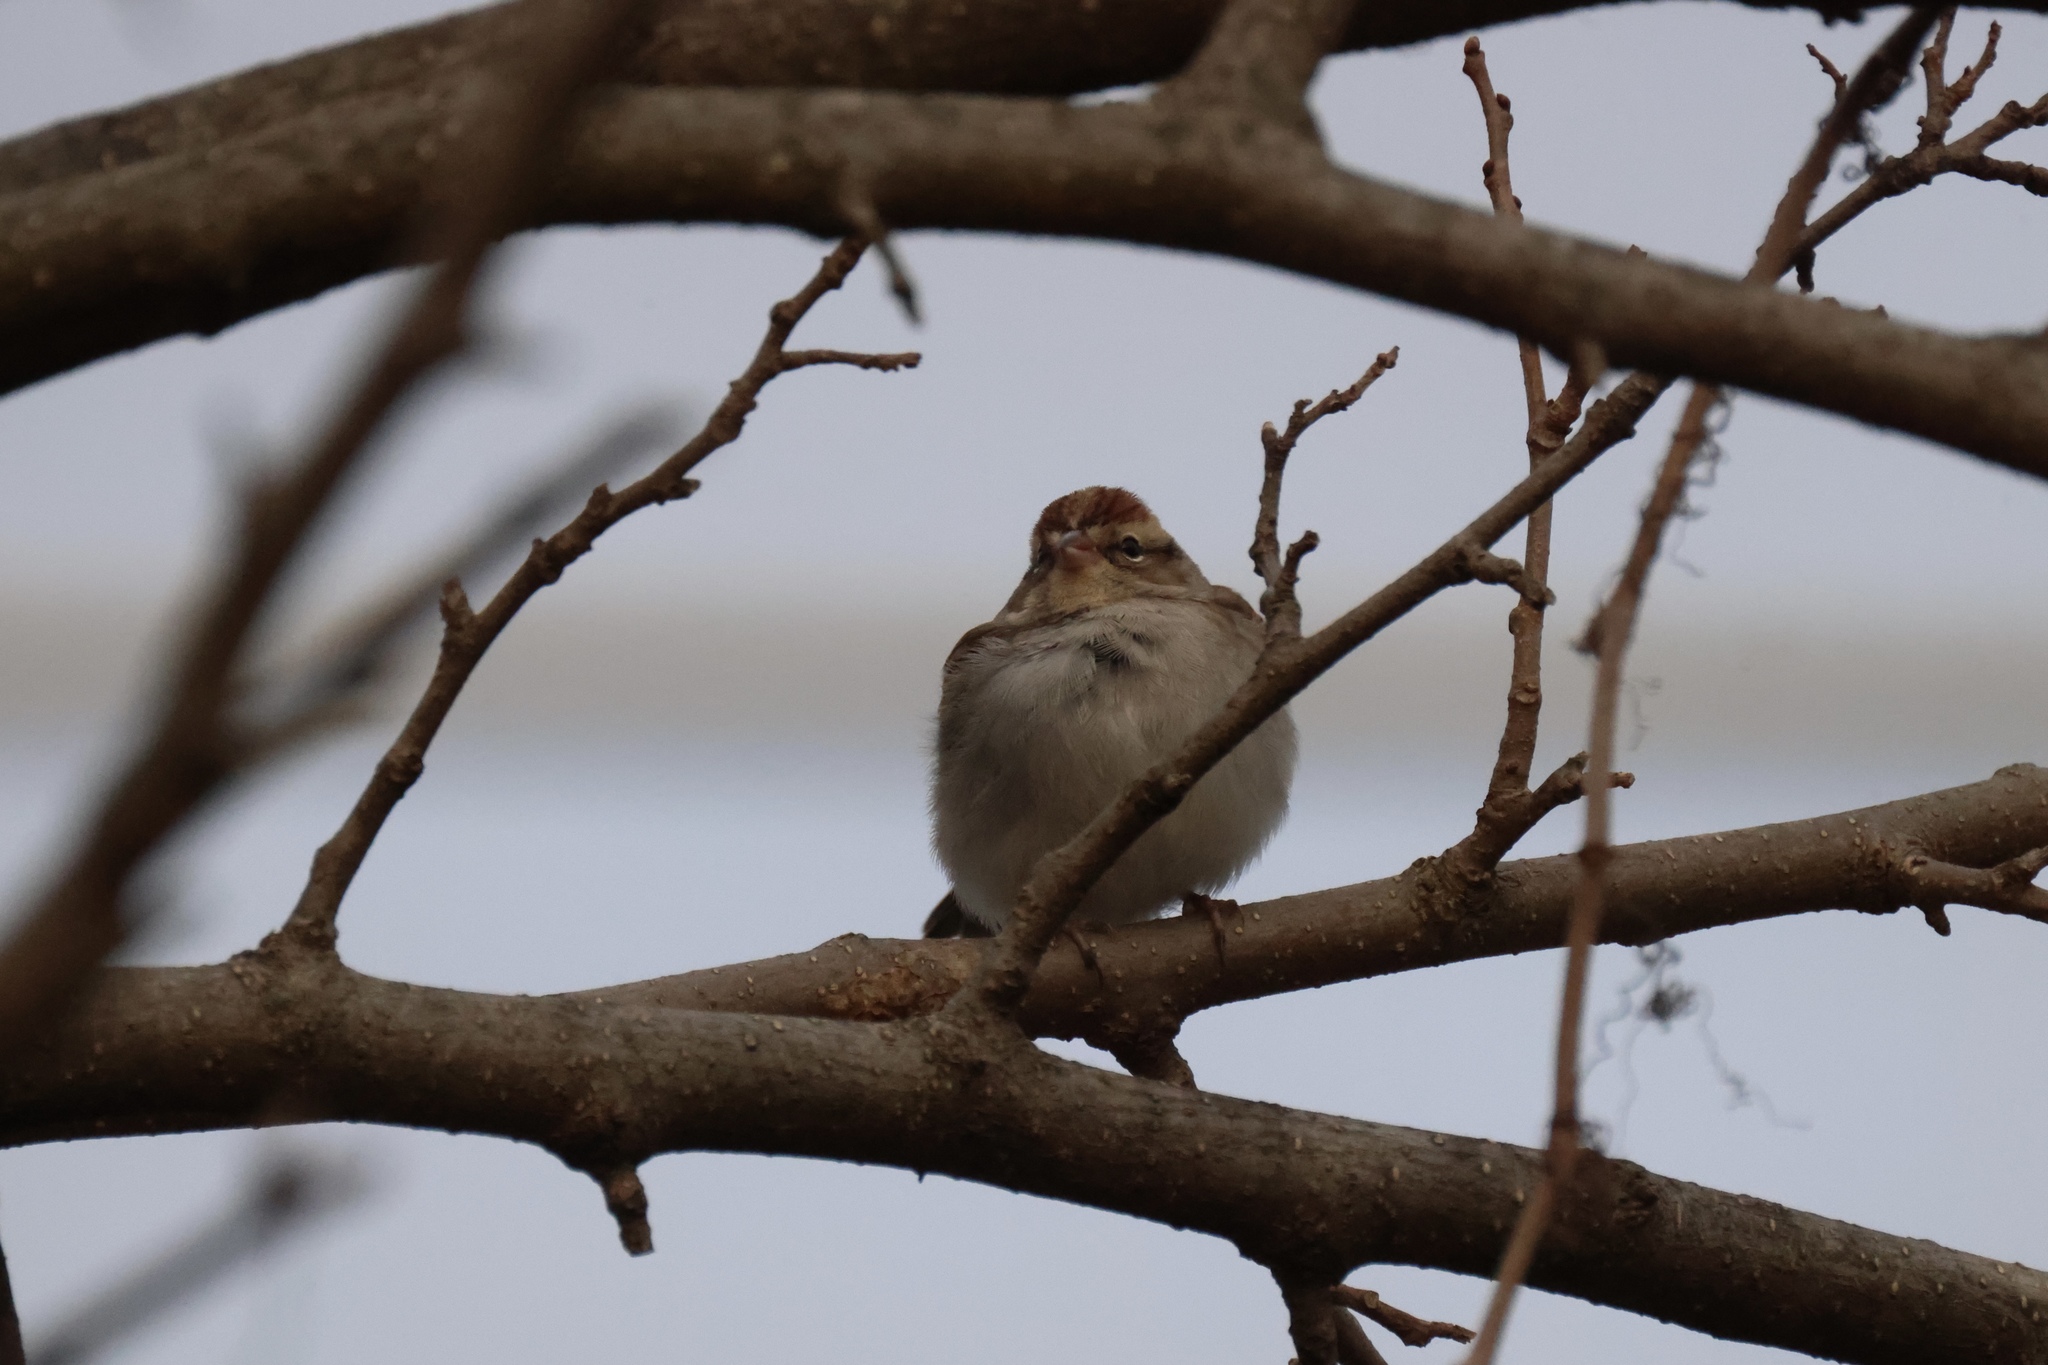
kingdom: Animalia
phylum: Chordata
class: Aves
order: Passeriformes
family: Passerellidae
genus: Spizella
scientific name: Spizella passerina
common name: Chipping sparrow
